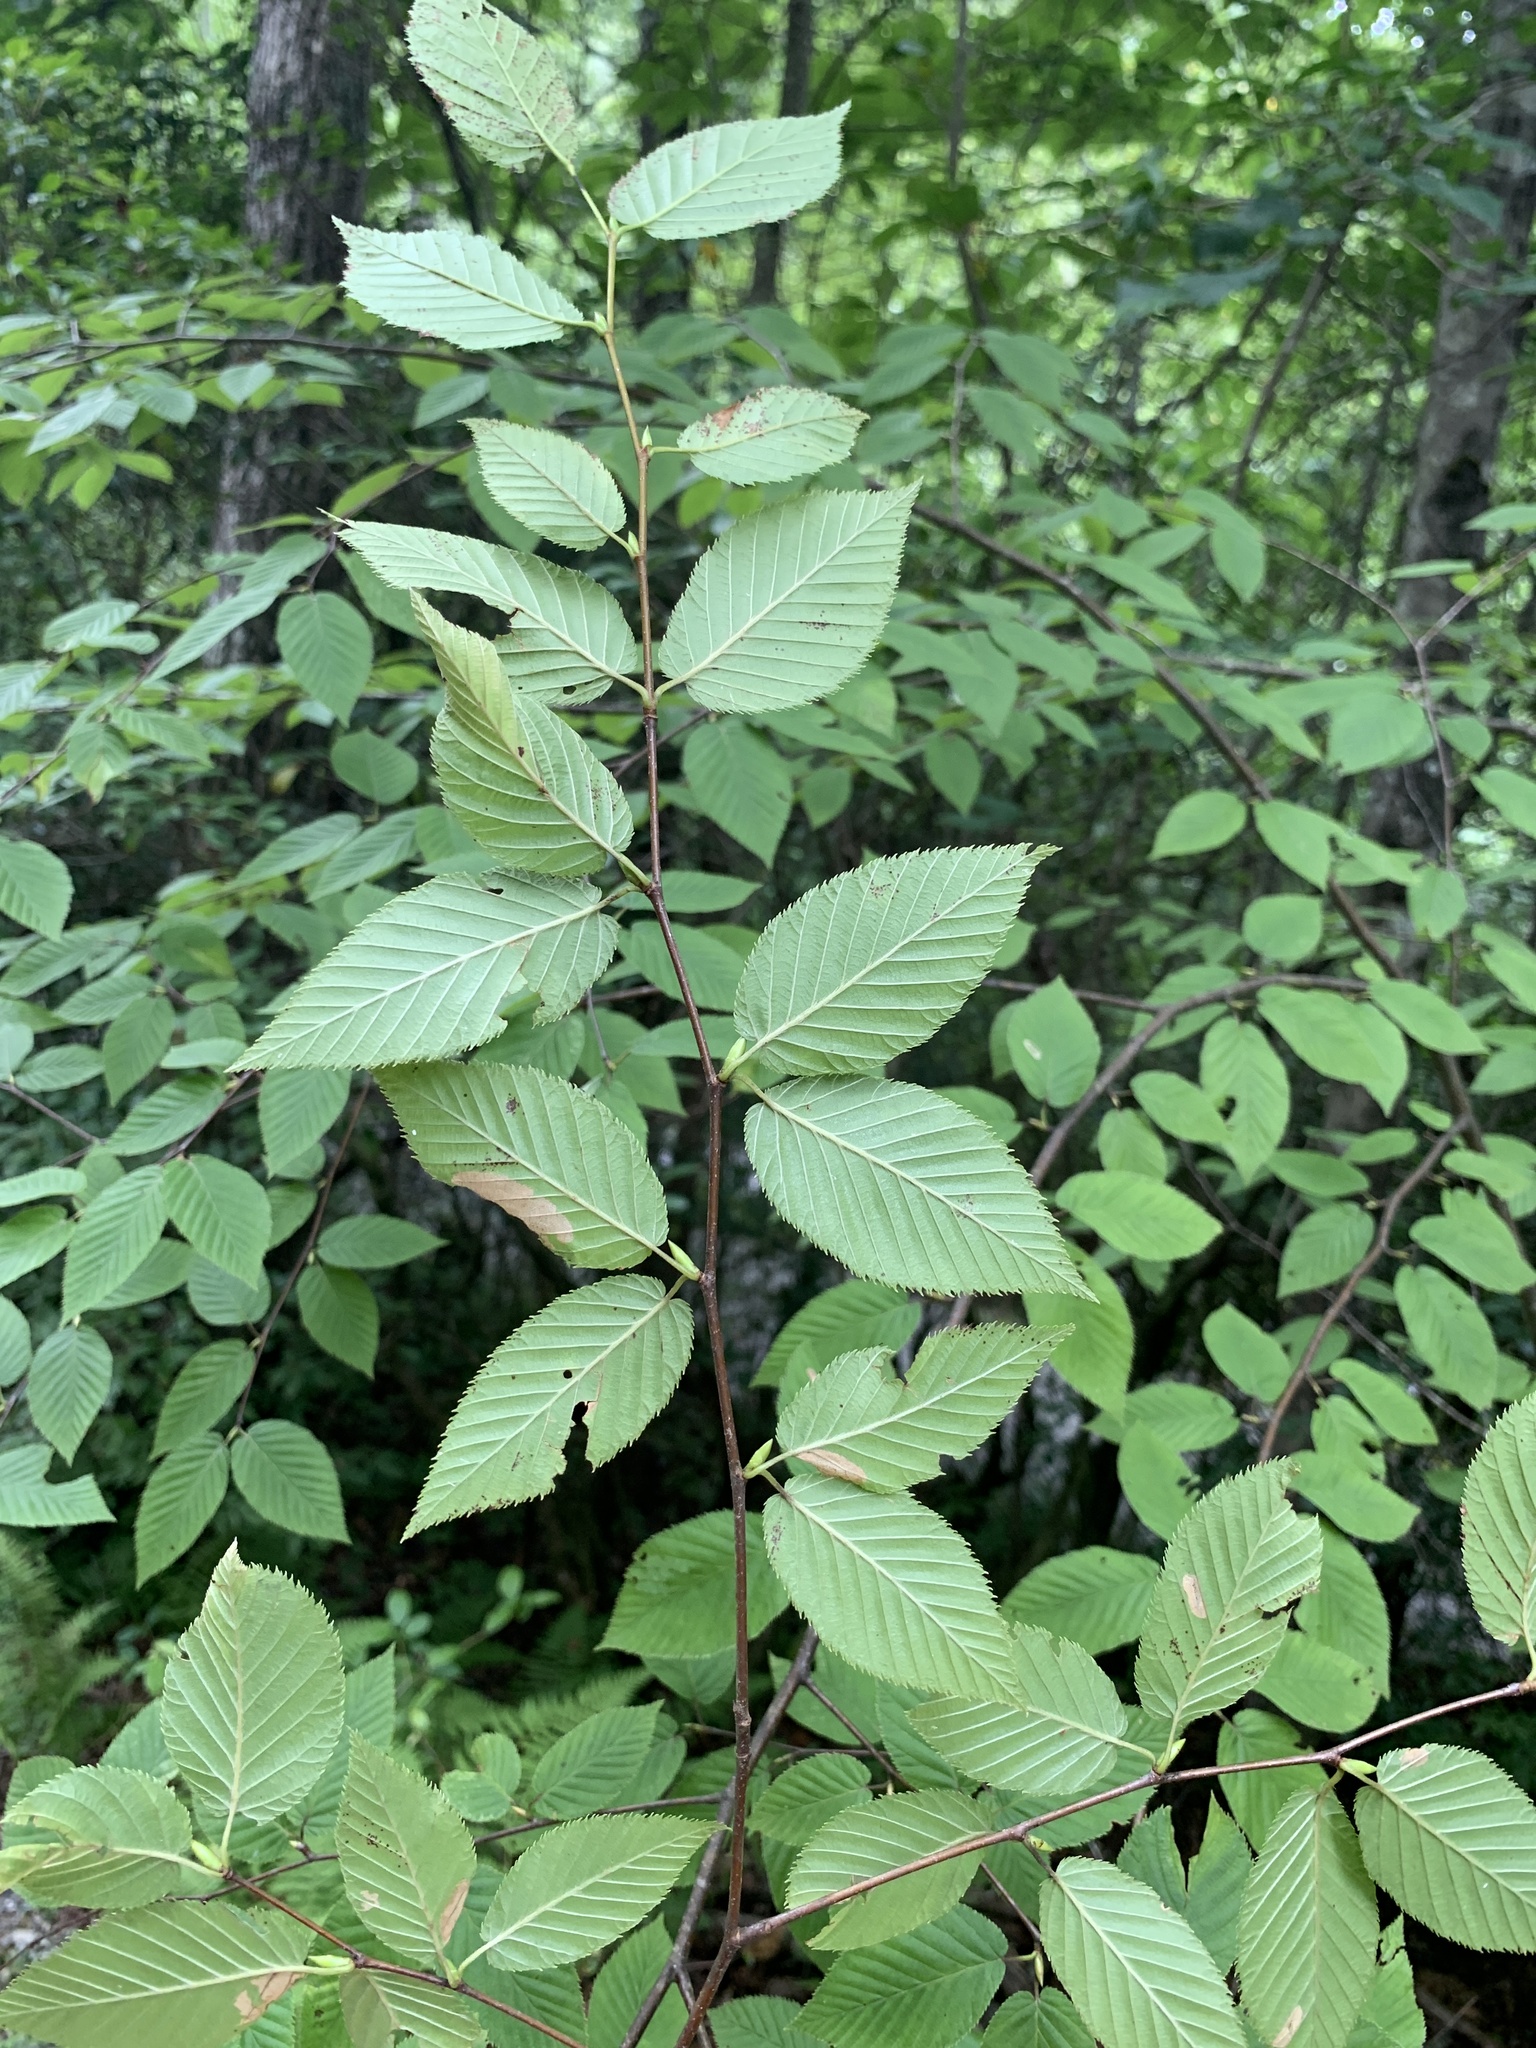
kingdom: Plantae
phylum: Tracheophyta
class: Magnoliopsida
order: Fagales
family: Betulaceae
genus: Betula
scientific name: Betula alleghaniensis
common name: Yellow birch
